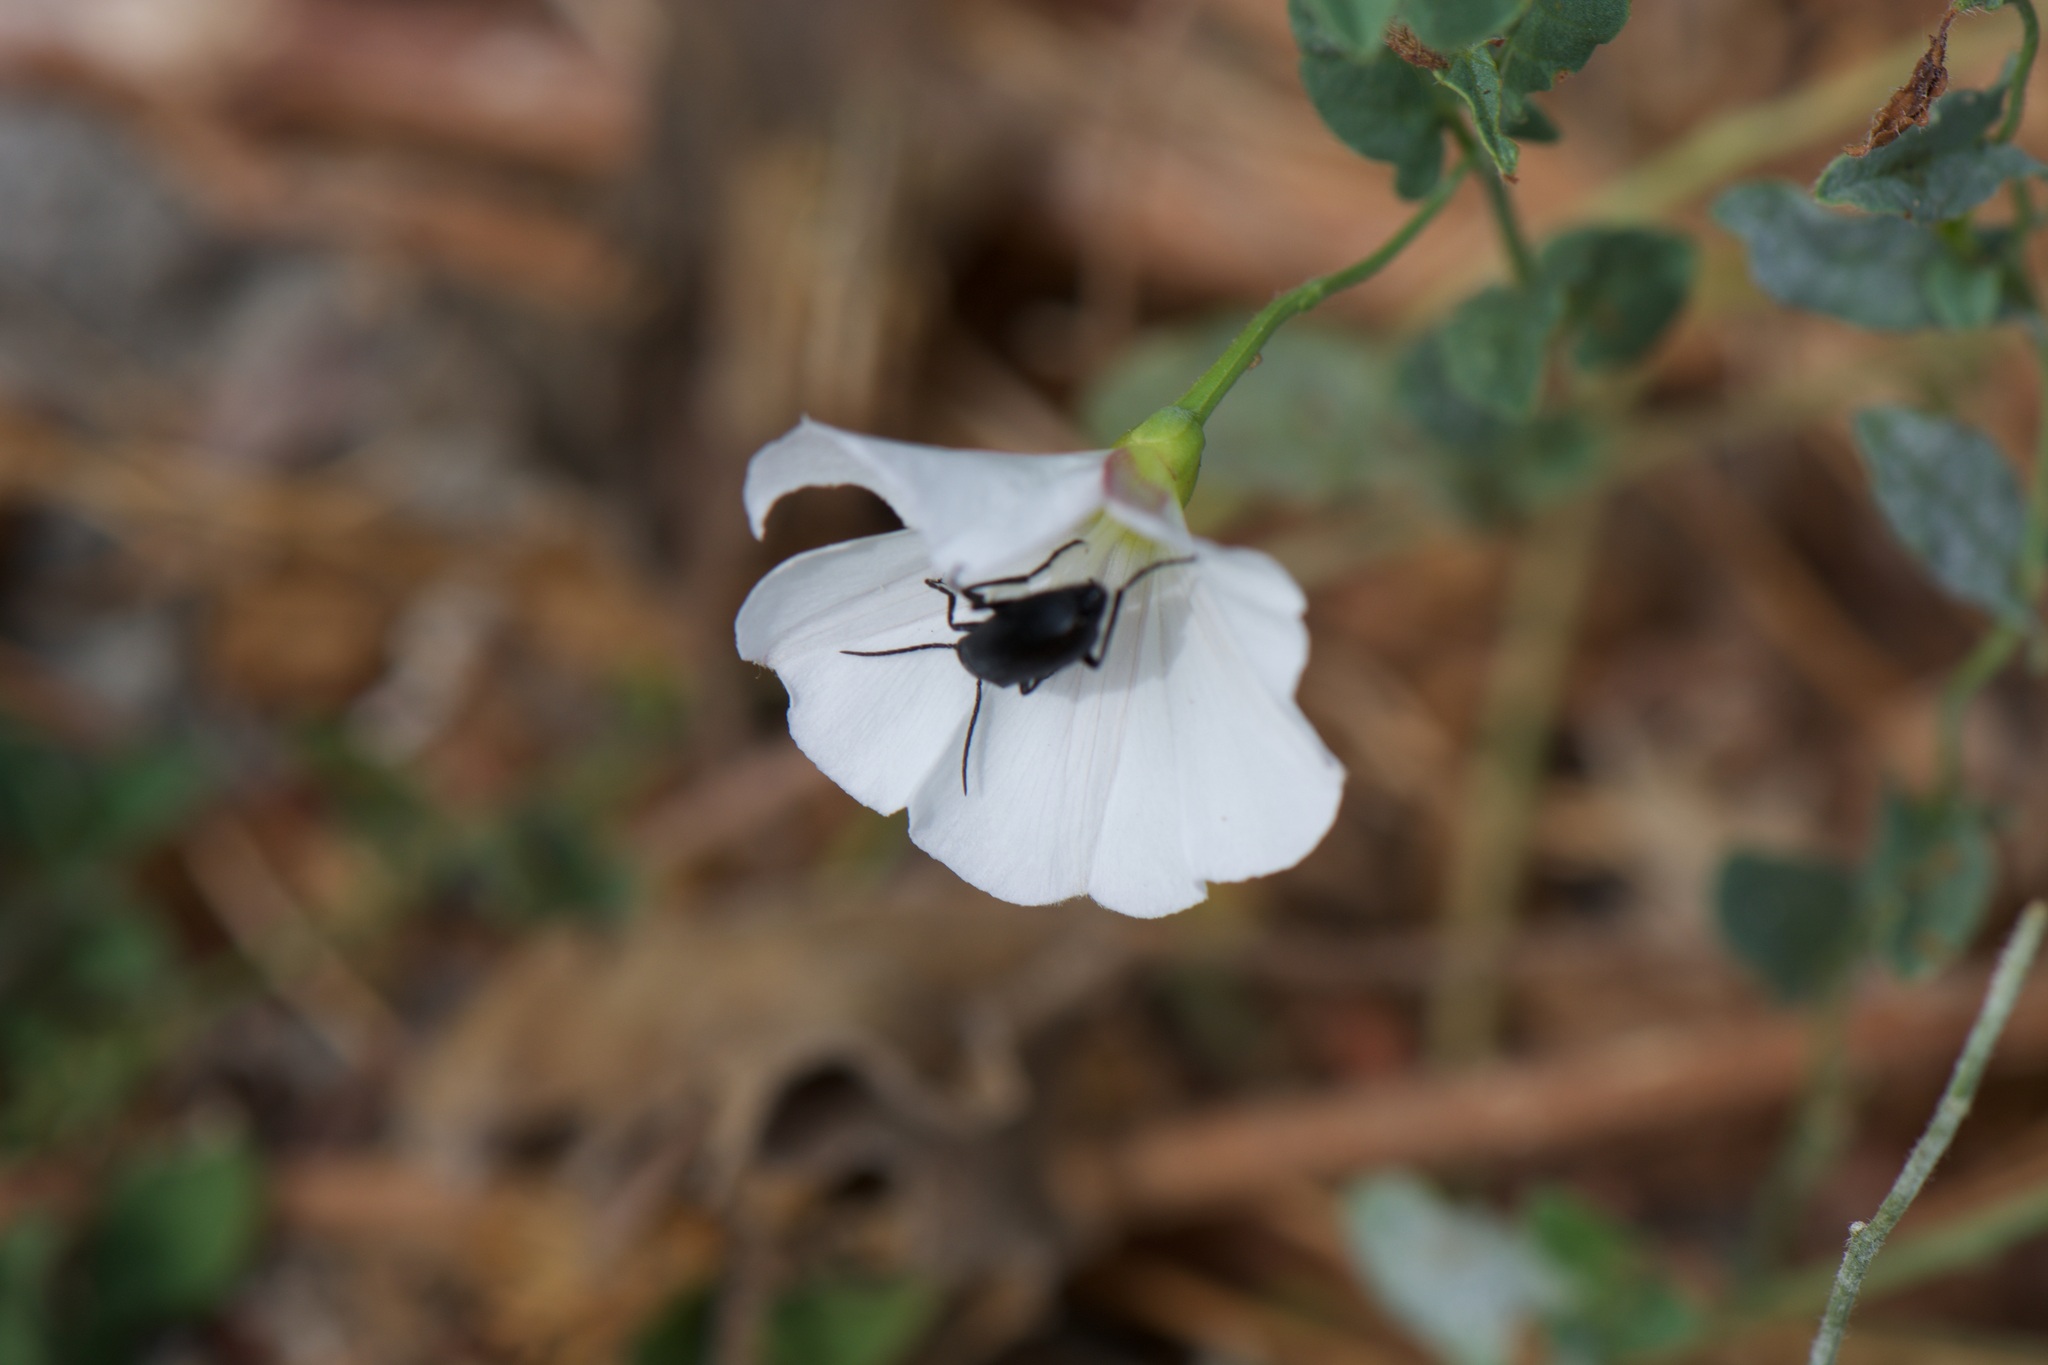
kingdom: Plantae
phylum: Tracheophyta
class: Magnoliopsida
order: Solanales
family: Convolvulaceae
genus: Convolvulus
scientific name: Convolvulus arvensis
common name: Field bindweed
